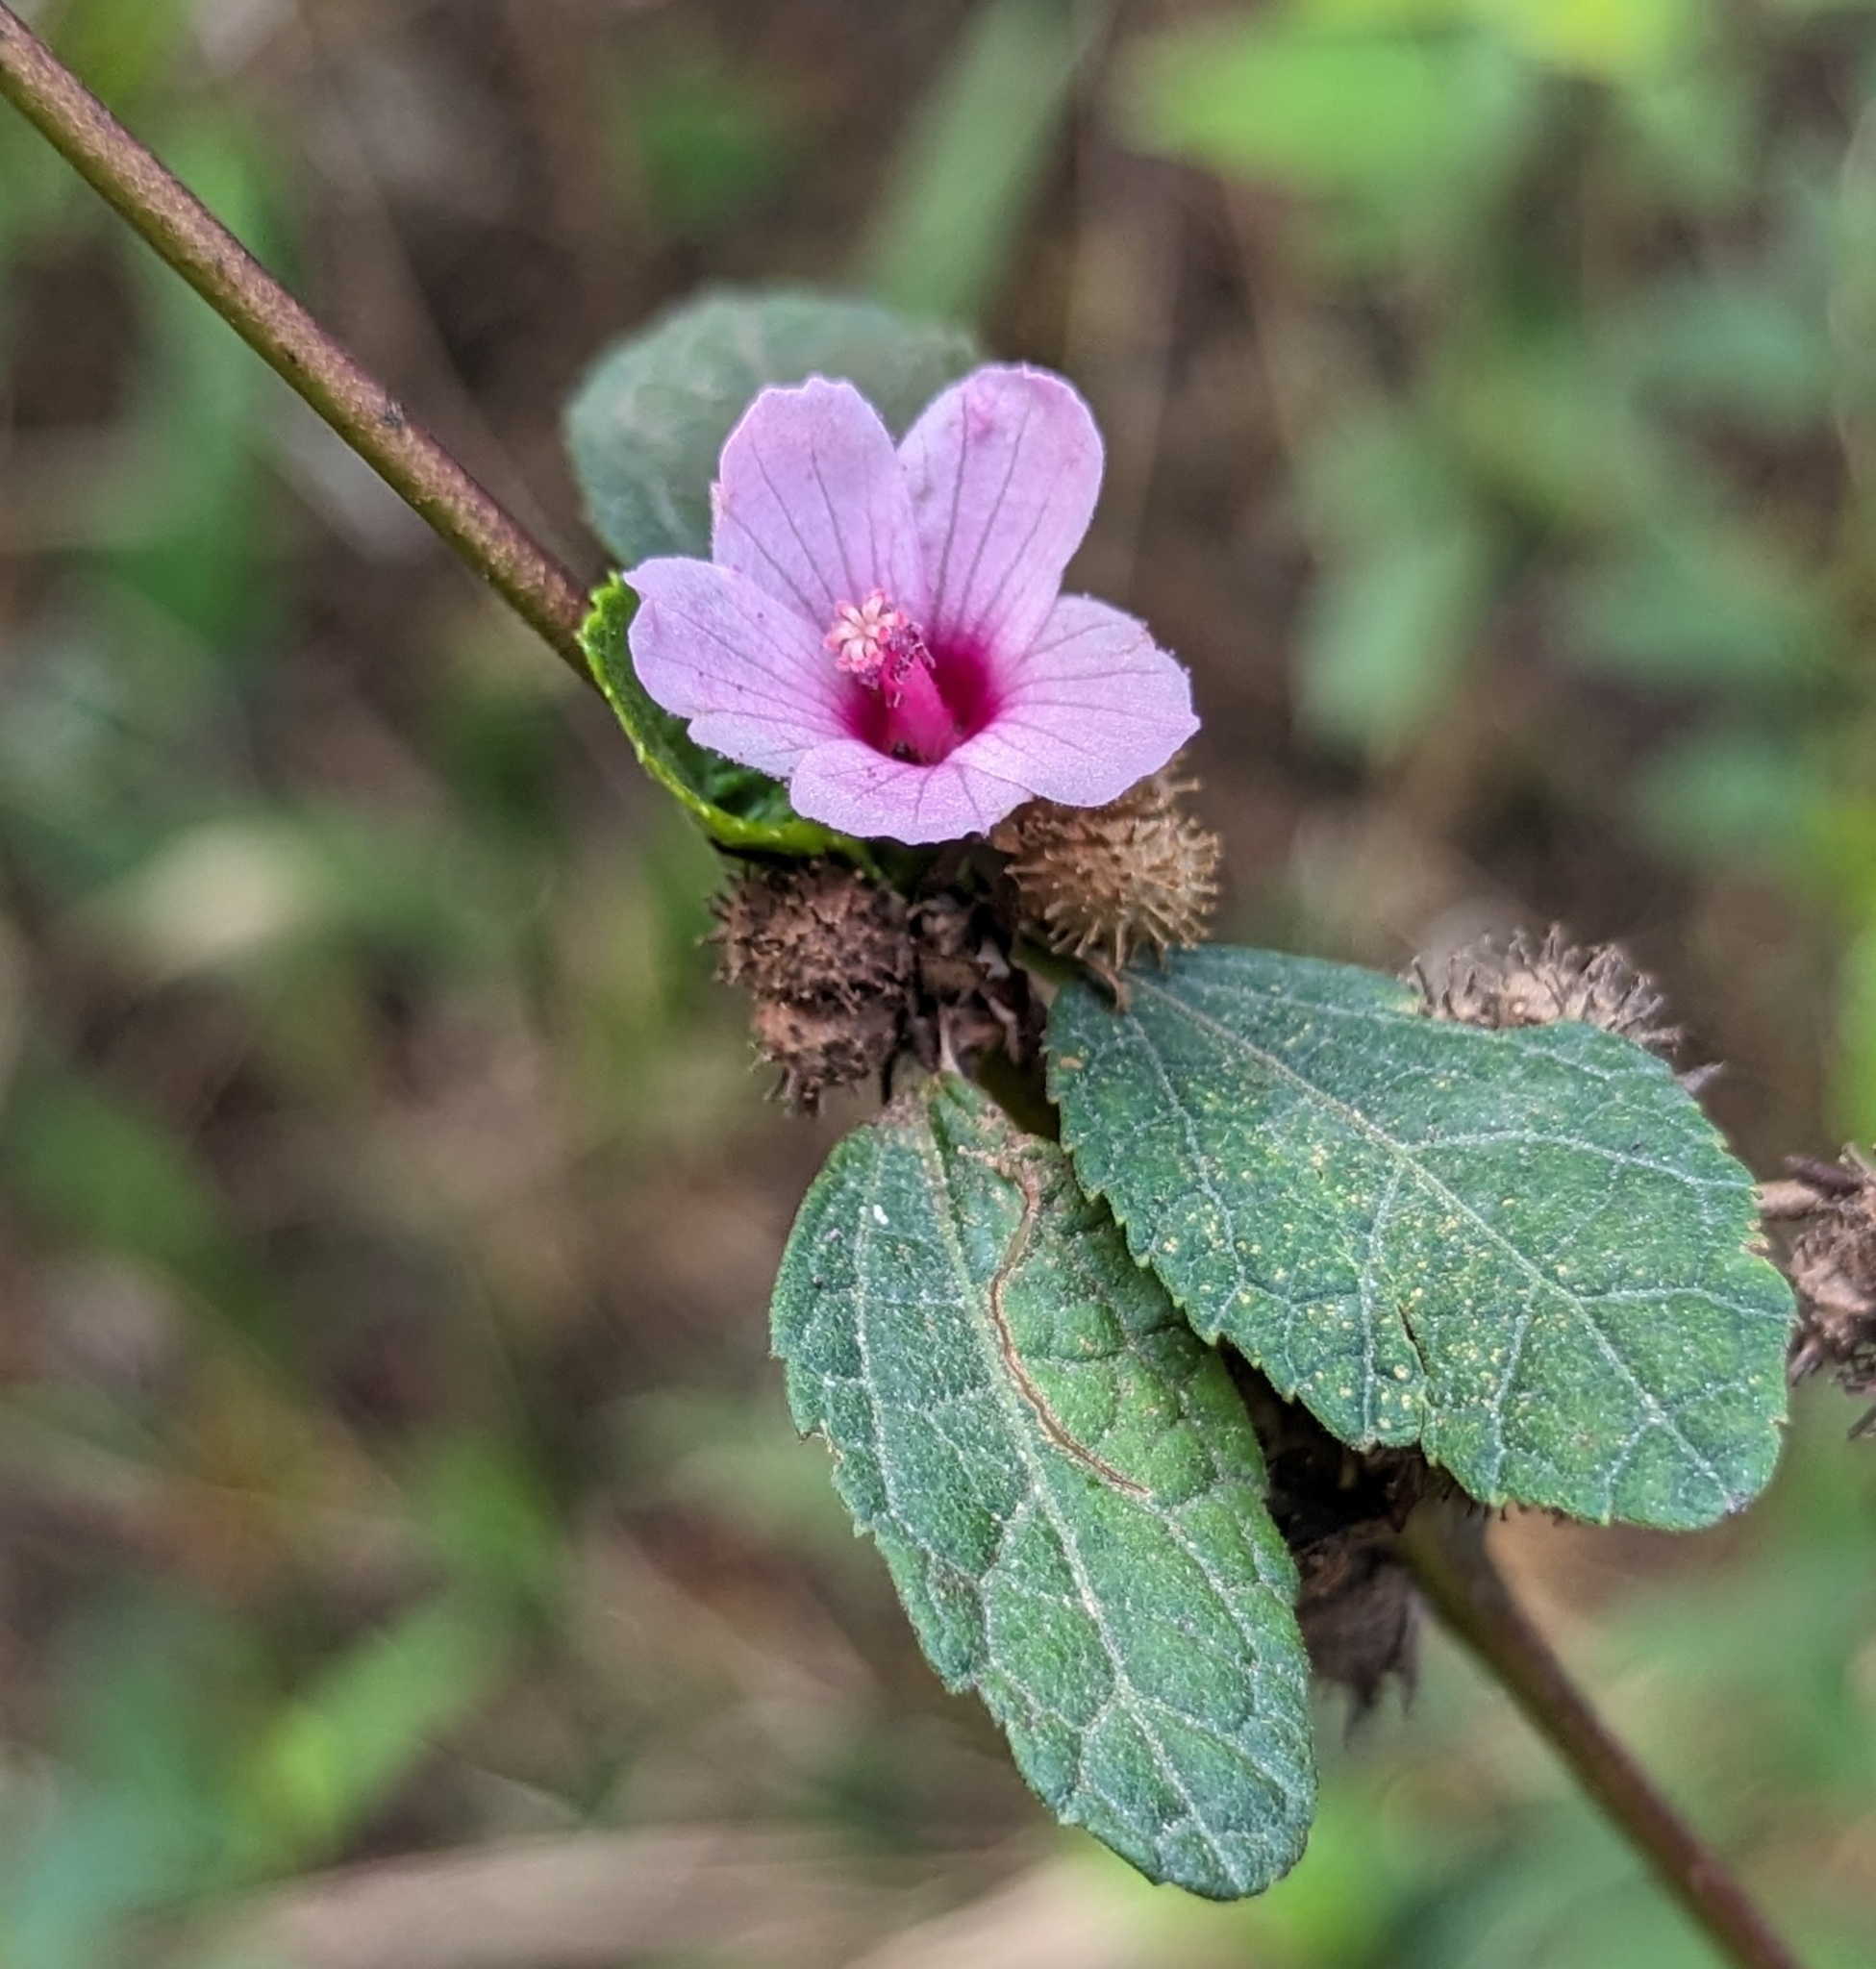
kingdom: Plantae
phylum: Tracheophyta
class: Magnoliopsida
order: Malvales
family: Malvaceae
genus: Urena
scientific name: Urena lobata
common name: Caesarweed
